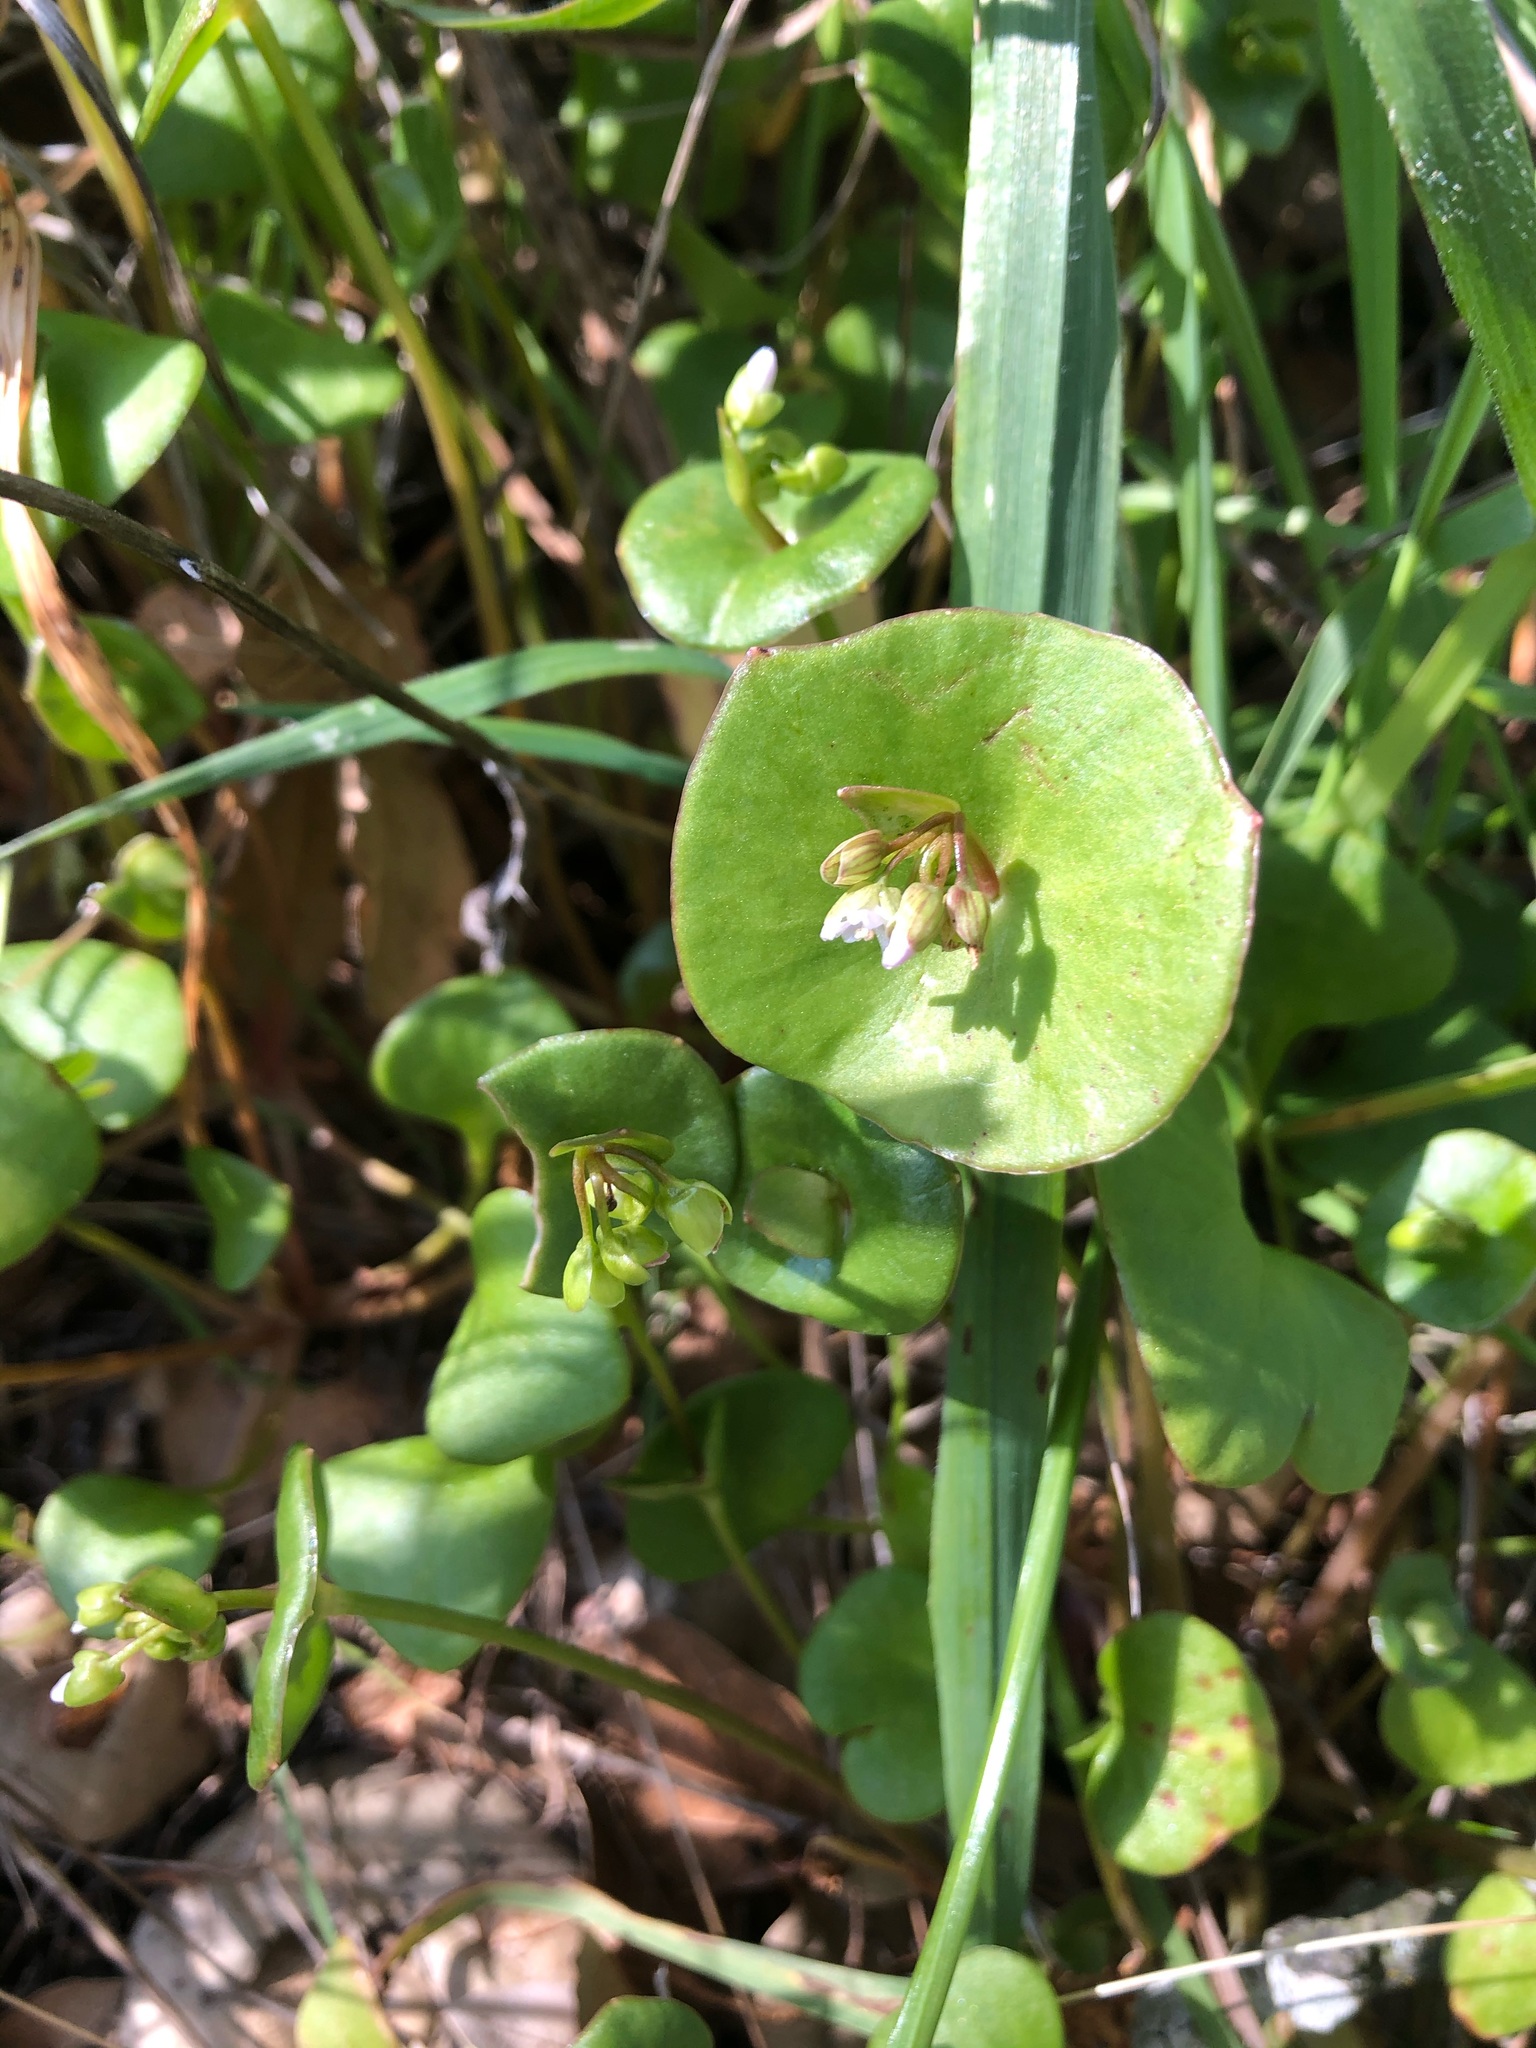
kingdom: Plantae
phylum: Tracheophyta
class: Magnoliopsida
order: Caryophyllales
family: Montiaceae
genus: Claytonia
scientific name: Claytonia perfoliata
